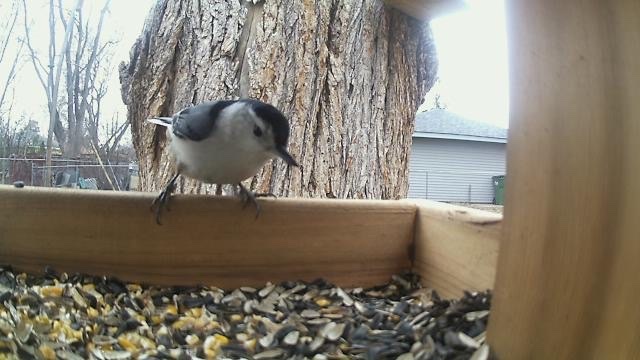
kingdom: Animalia
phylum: Chordata
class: Aves
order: Passeriformes
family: Sittidae
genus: Sitta
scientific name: Sitta carolinensis
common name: White-breasted nuthatch
